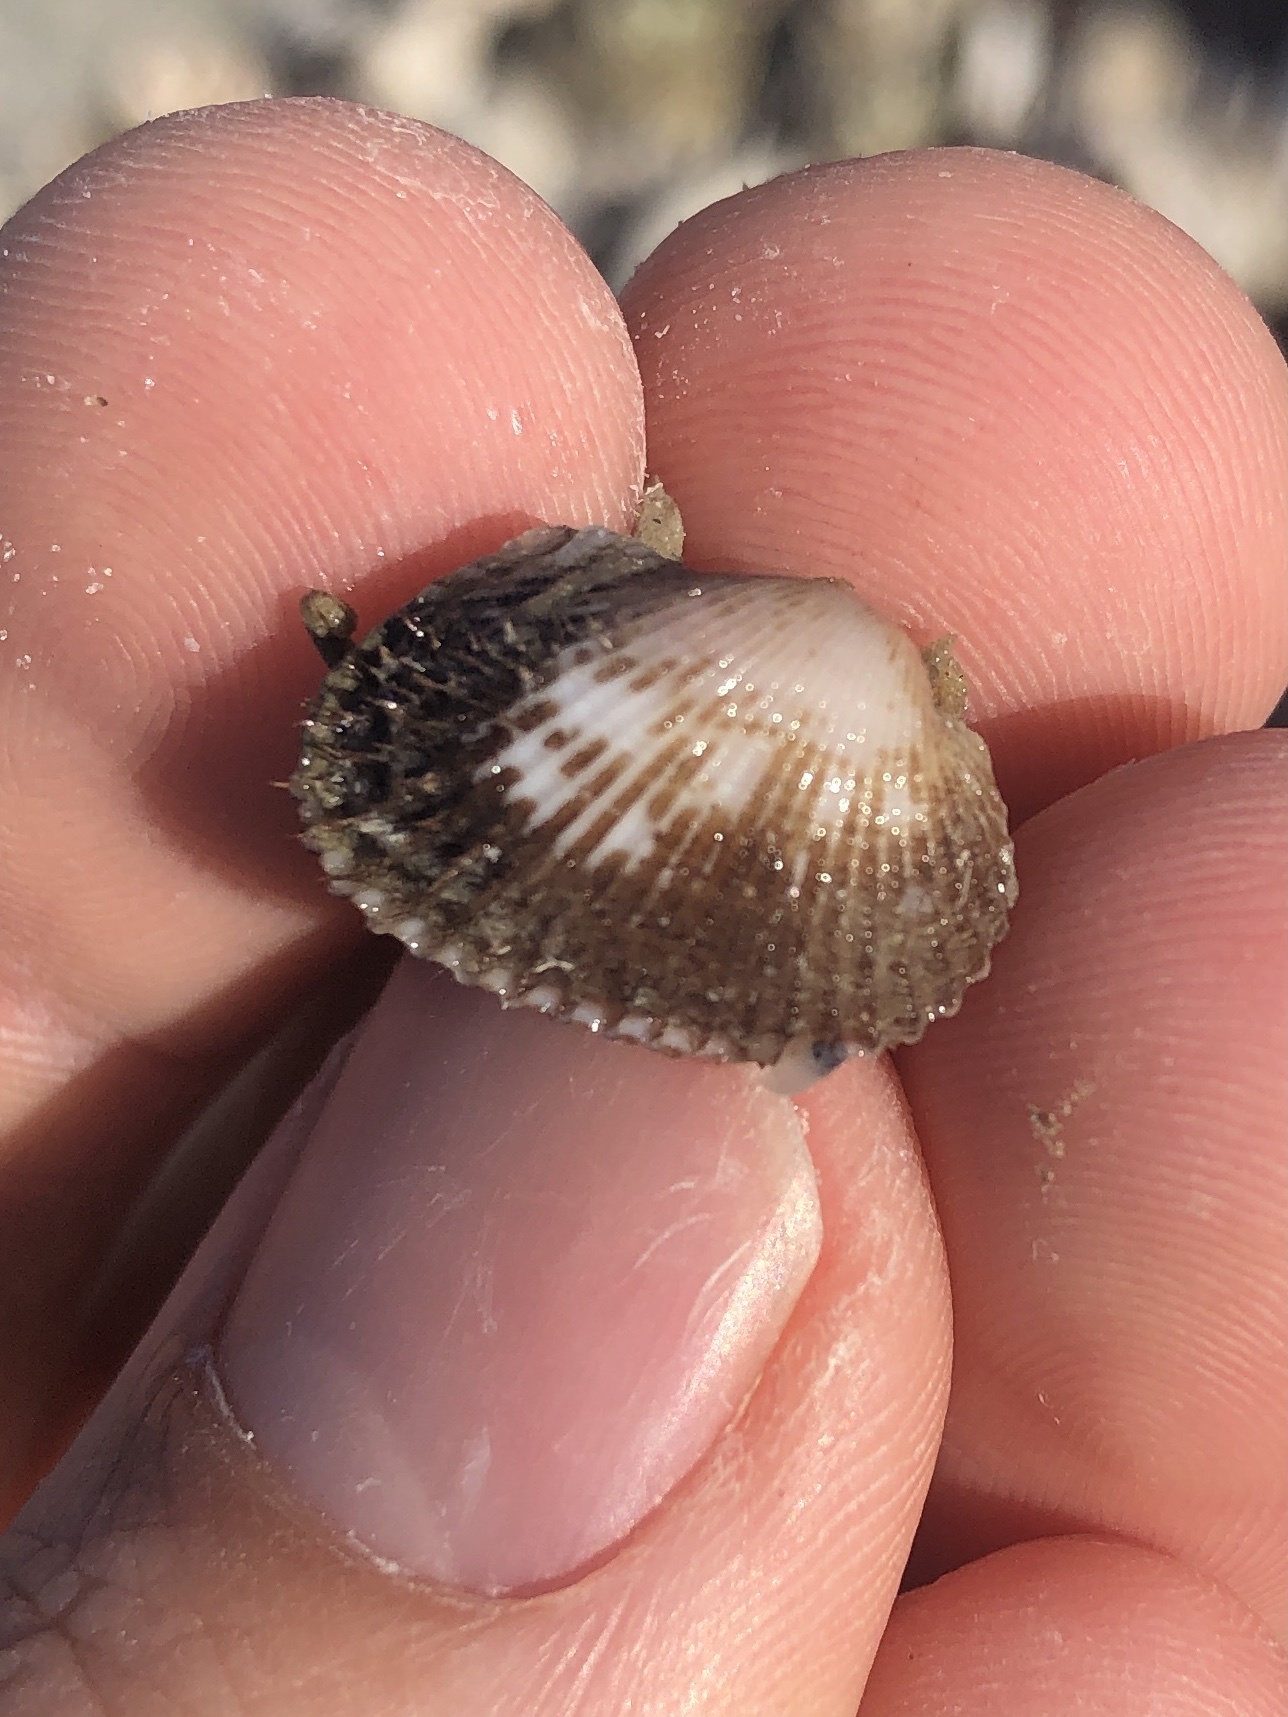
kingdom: Animalia
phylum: Mollusca
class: Bivalvia
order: Arcida
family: Arcidae
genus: Anadara
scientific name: Anadara transversa
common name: Transverse ark
